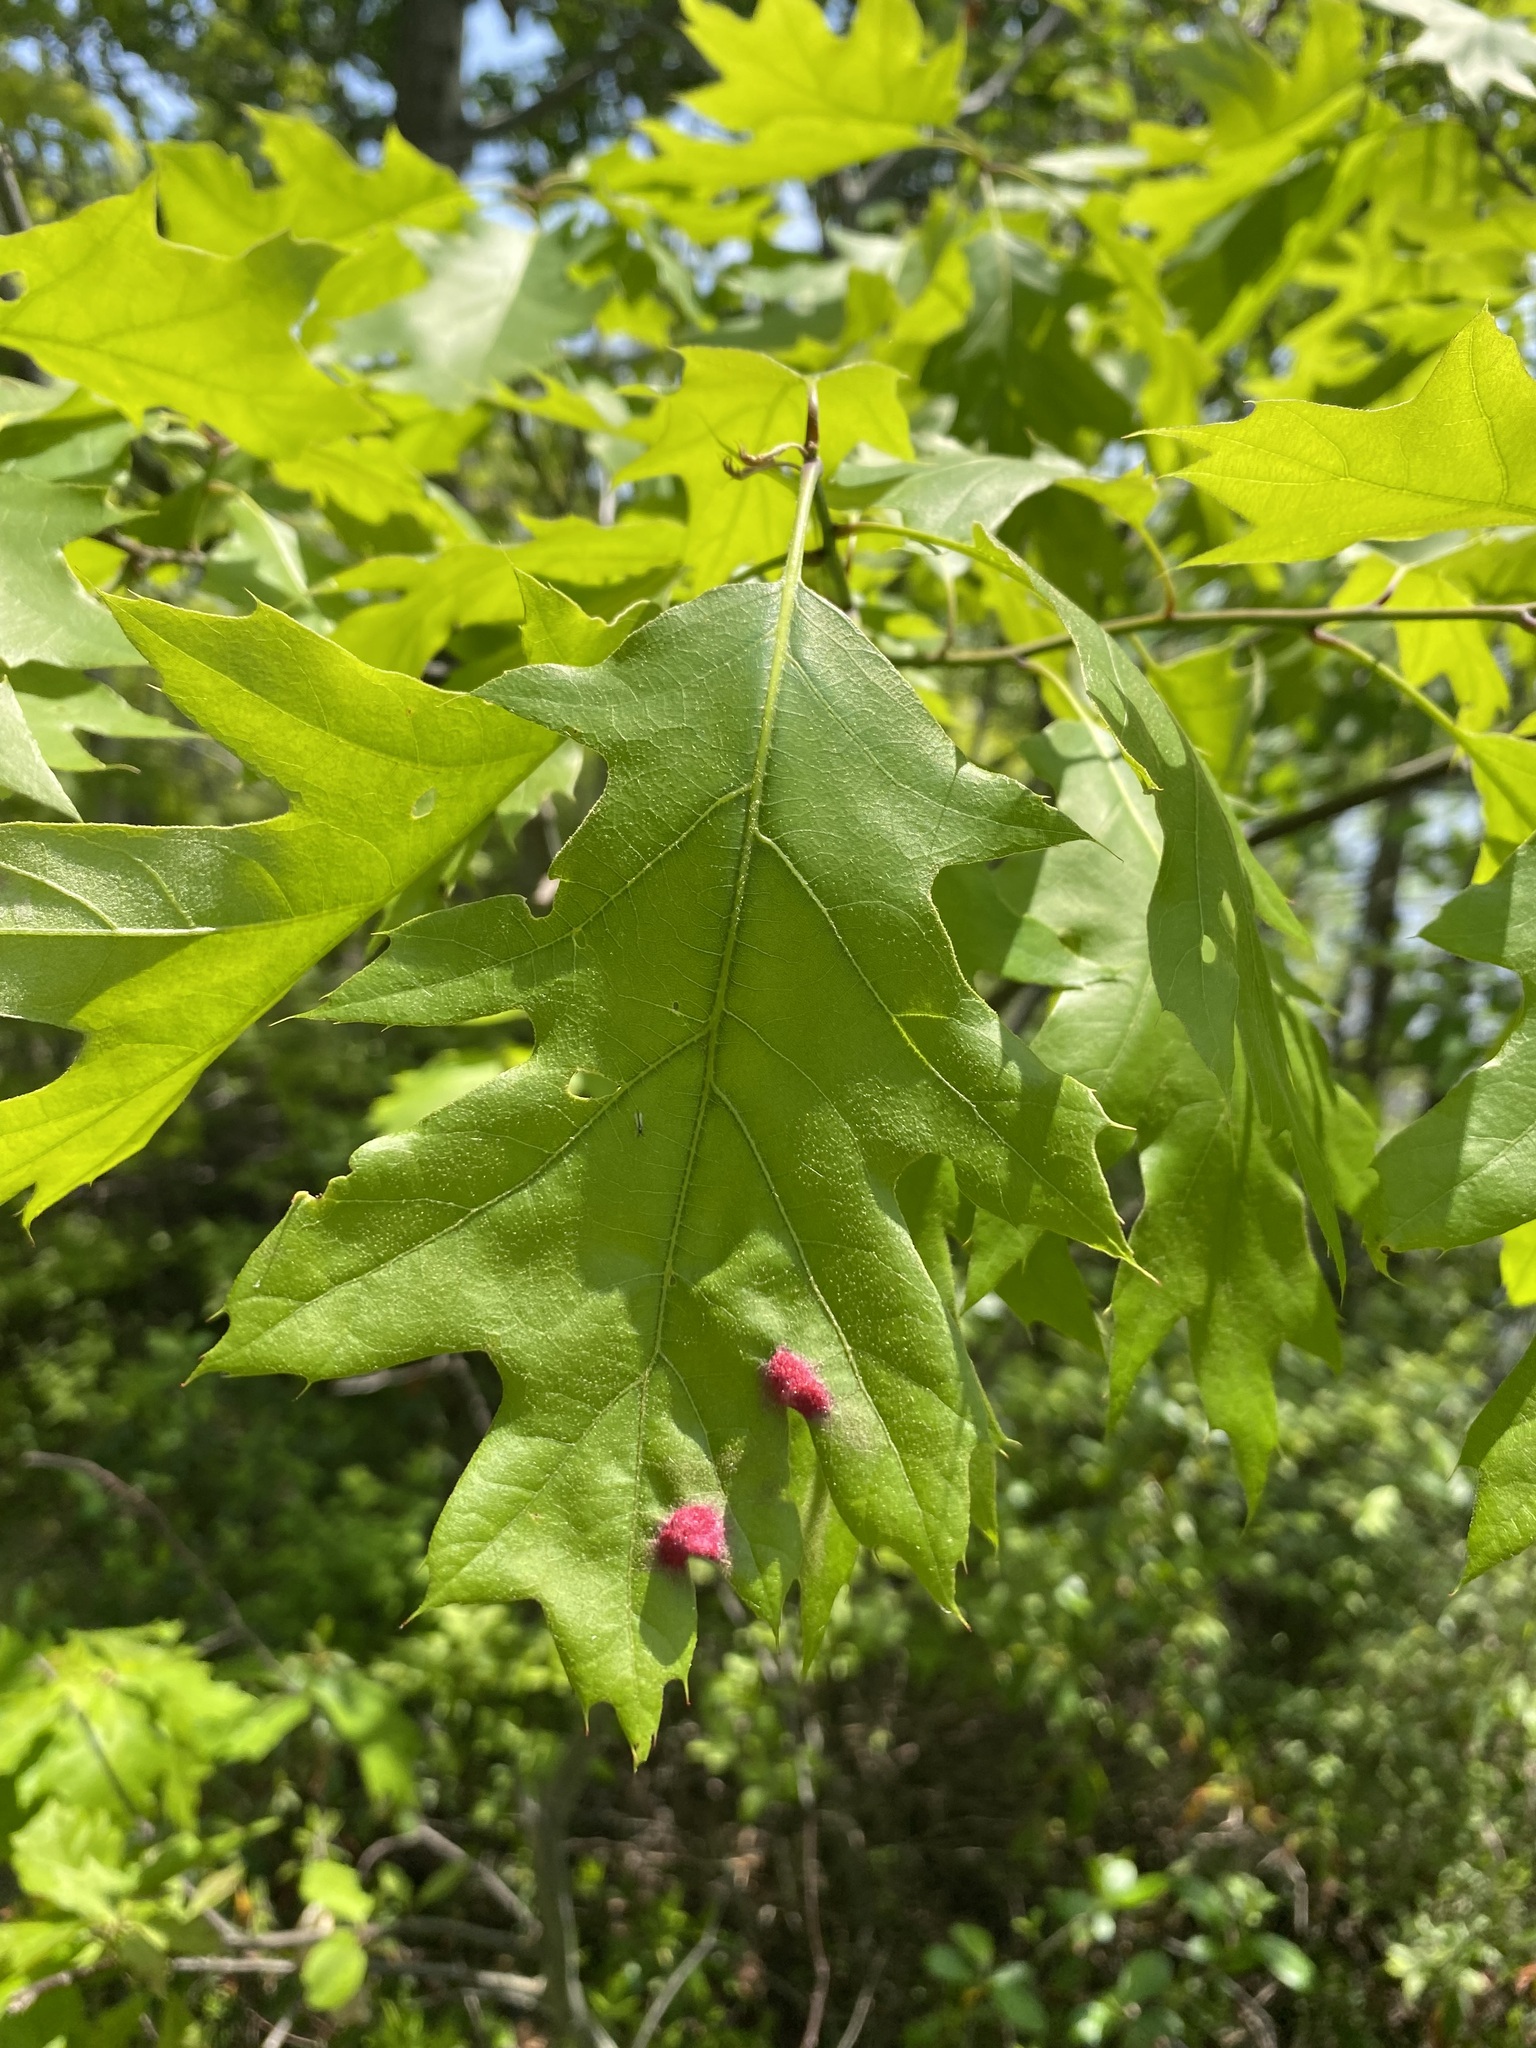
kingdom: Animalia
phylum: Arthropoda
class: Arachnida
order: Trombidiformes
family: Eriophyidae
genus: Aceria
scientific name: Aceria
